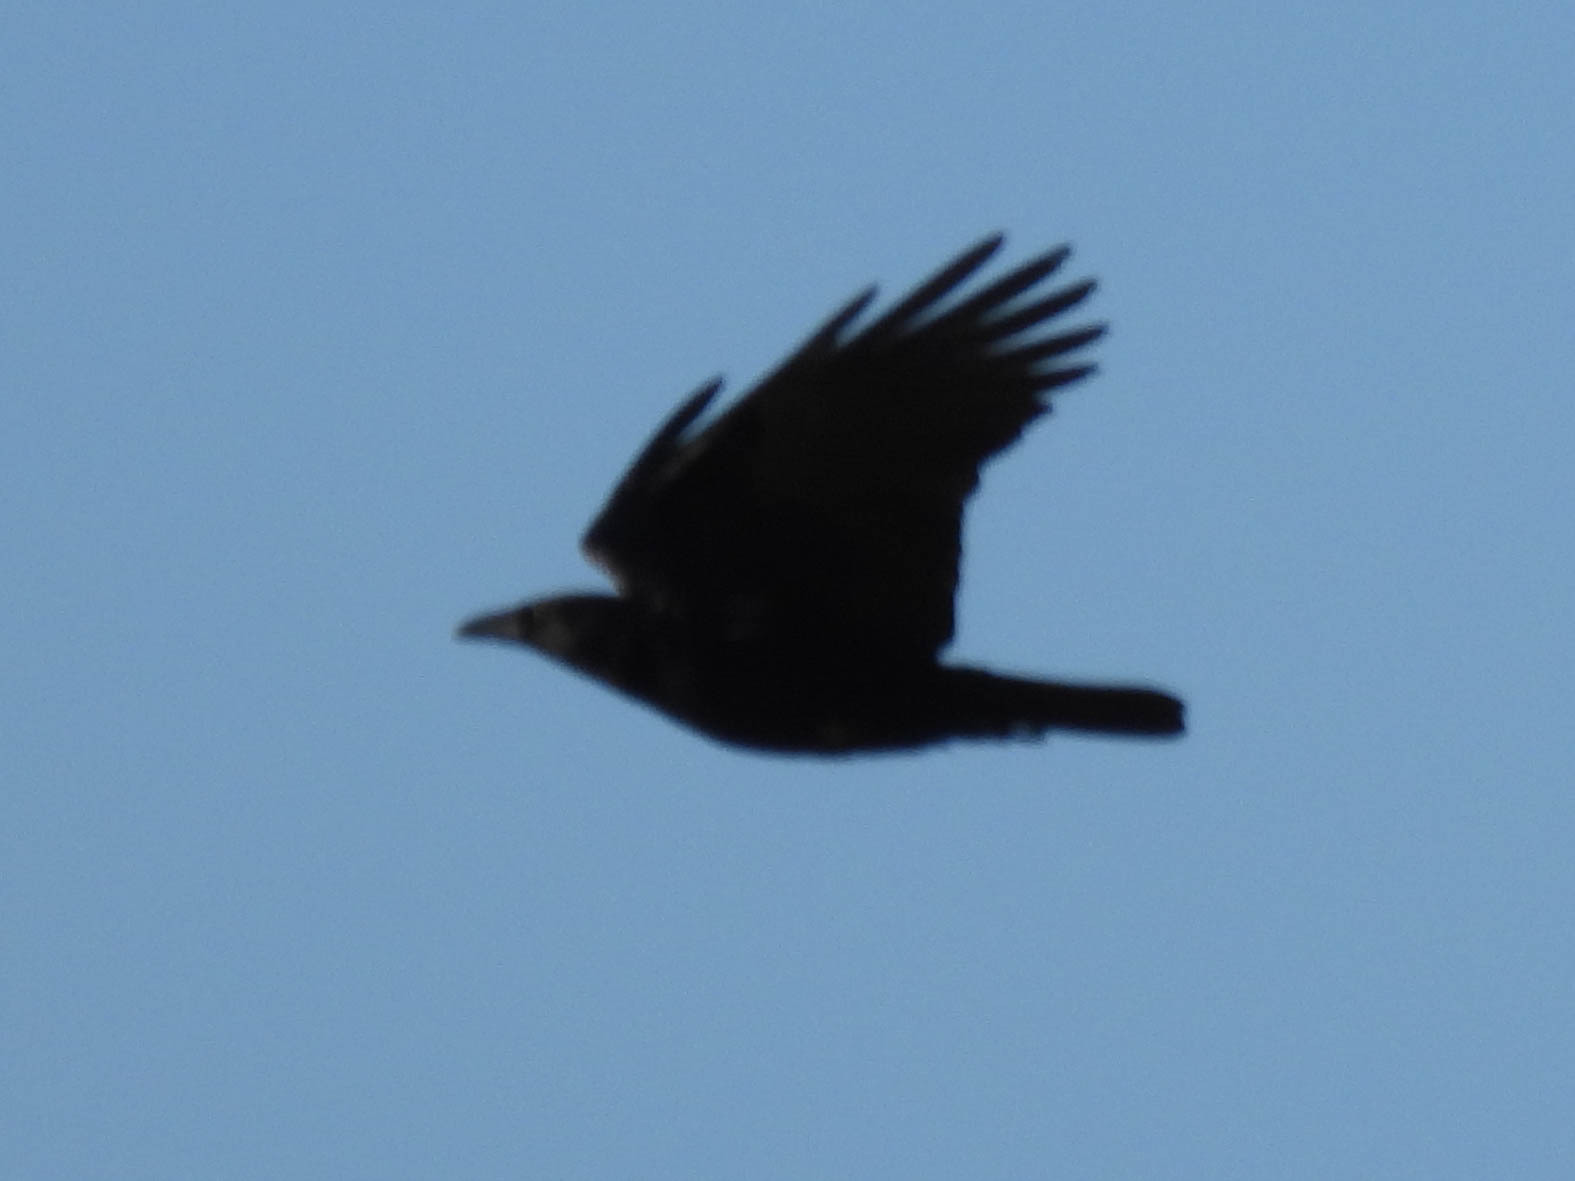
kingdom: Animalia
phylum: Chordata
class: Aves
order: Passeriformes
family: Corvidae
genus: Corvus
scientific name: Corvus brachyrhynchos
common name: American crow
